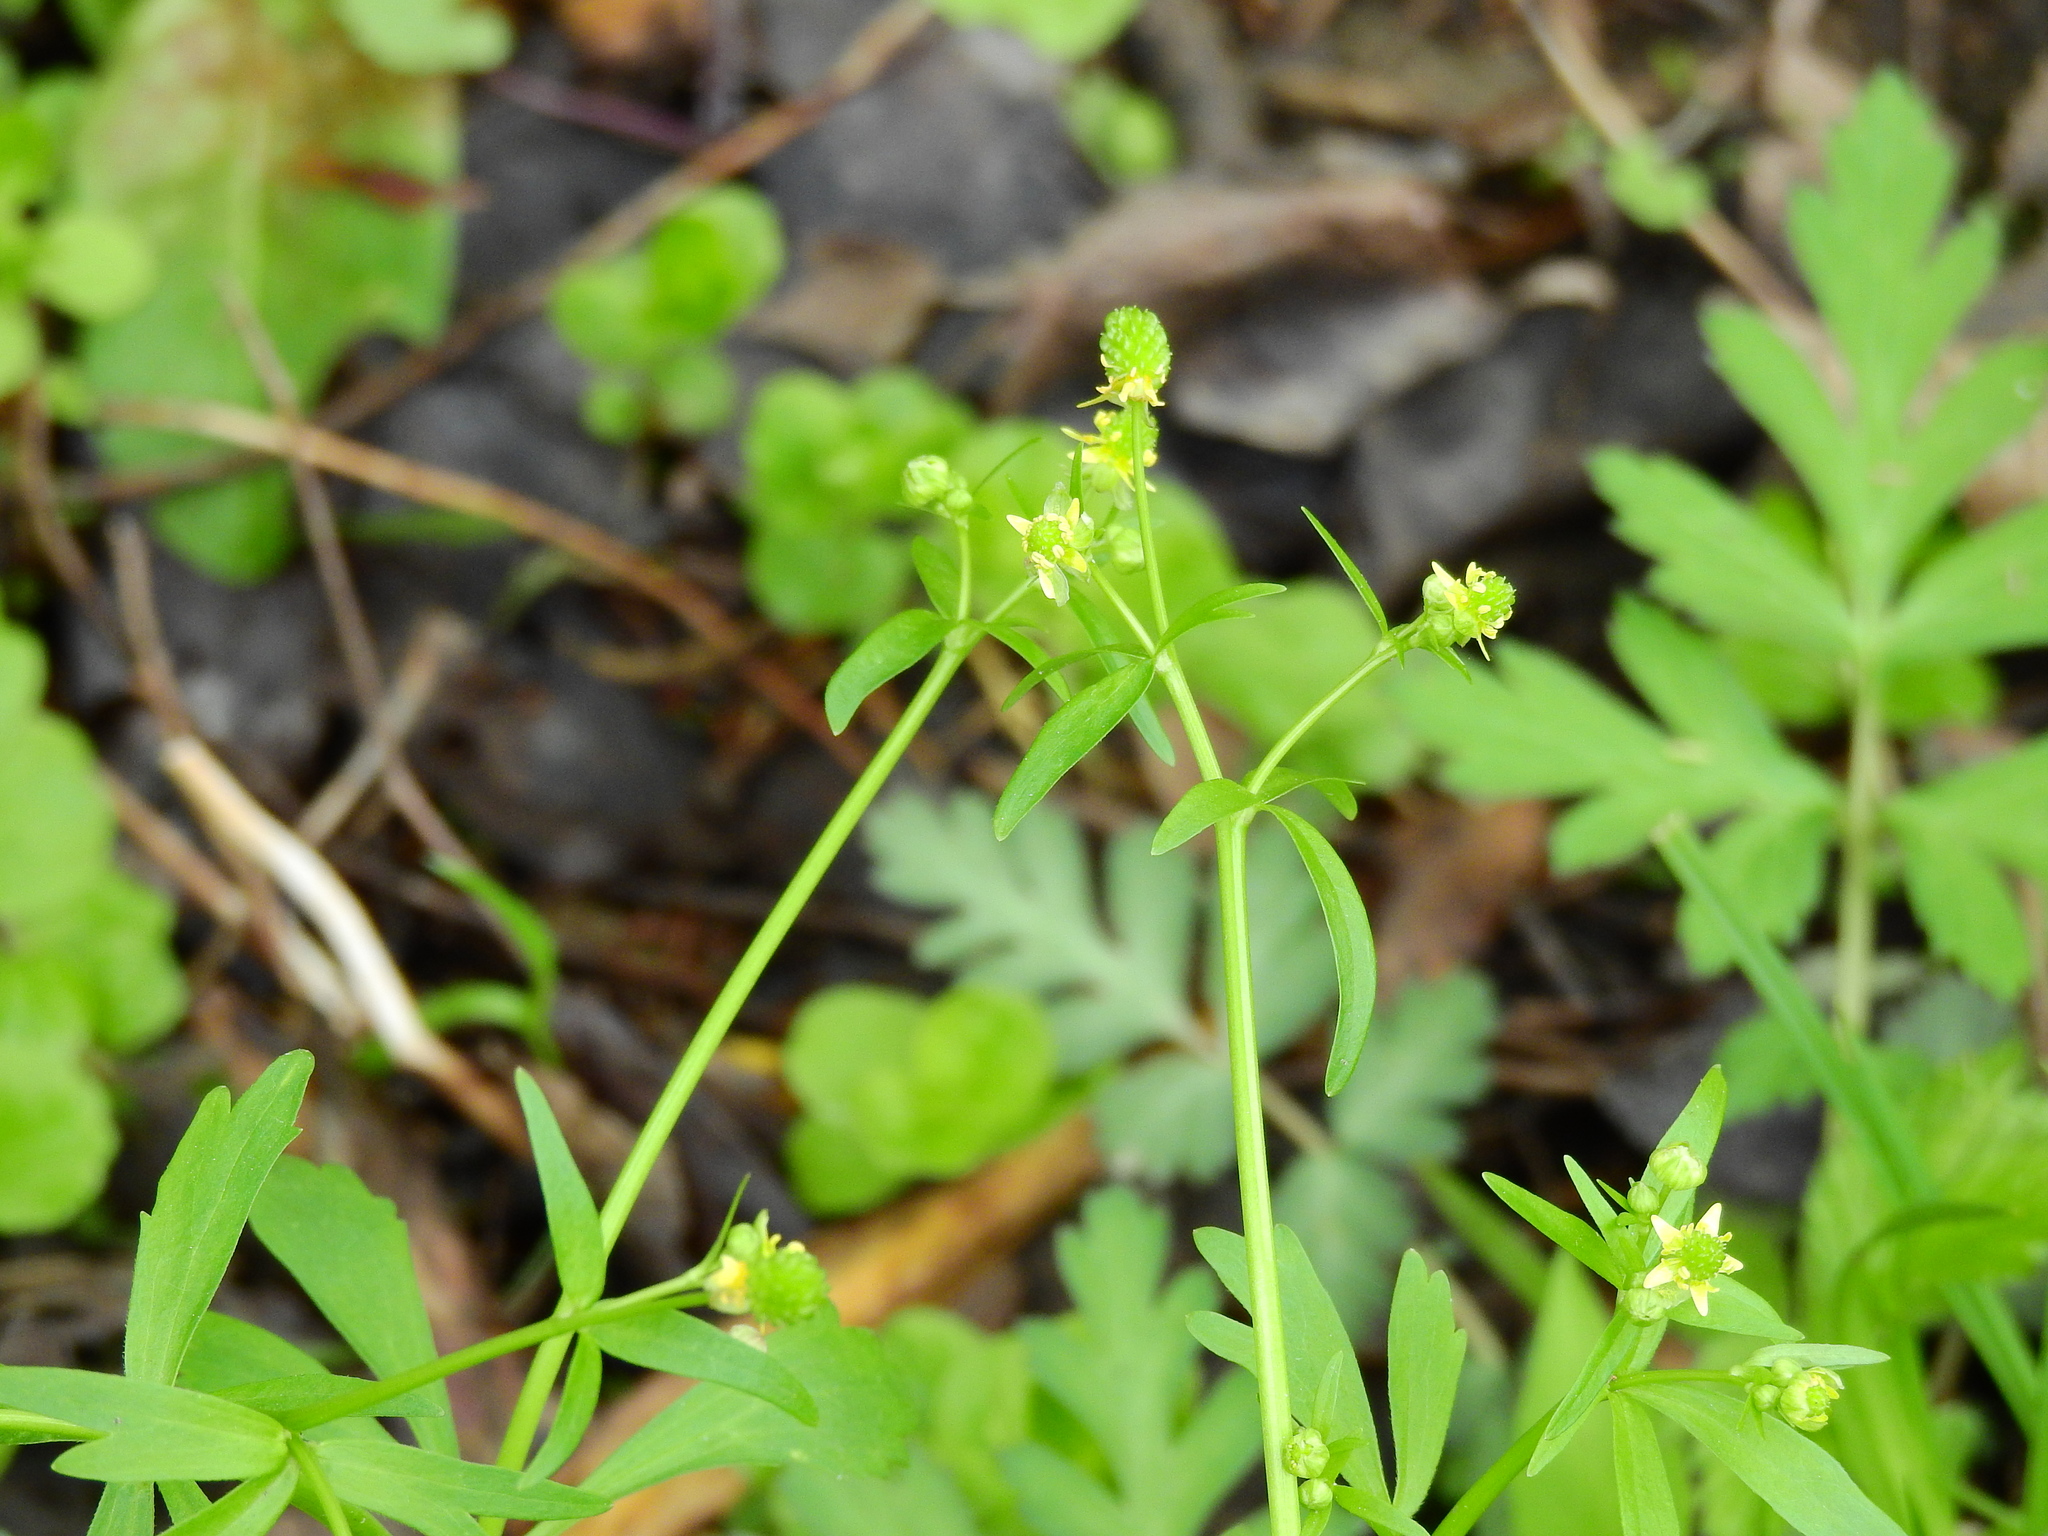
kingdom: Plantae
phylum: Tracheophyta
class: Magnoliopsida
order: Ranunculales
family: Ranunculaceae
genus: Ranunculus
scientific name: Ranunculus abortivus
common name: Early wood buttercup
